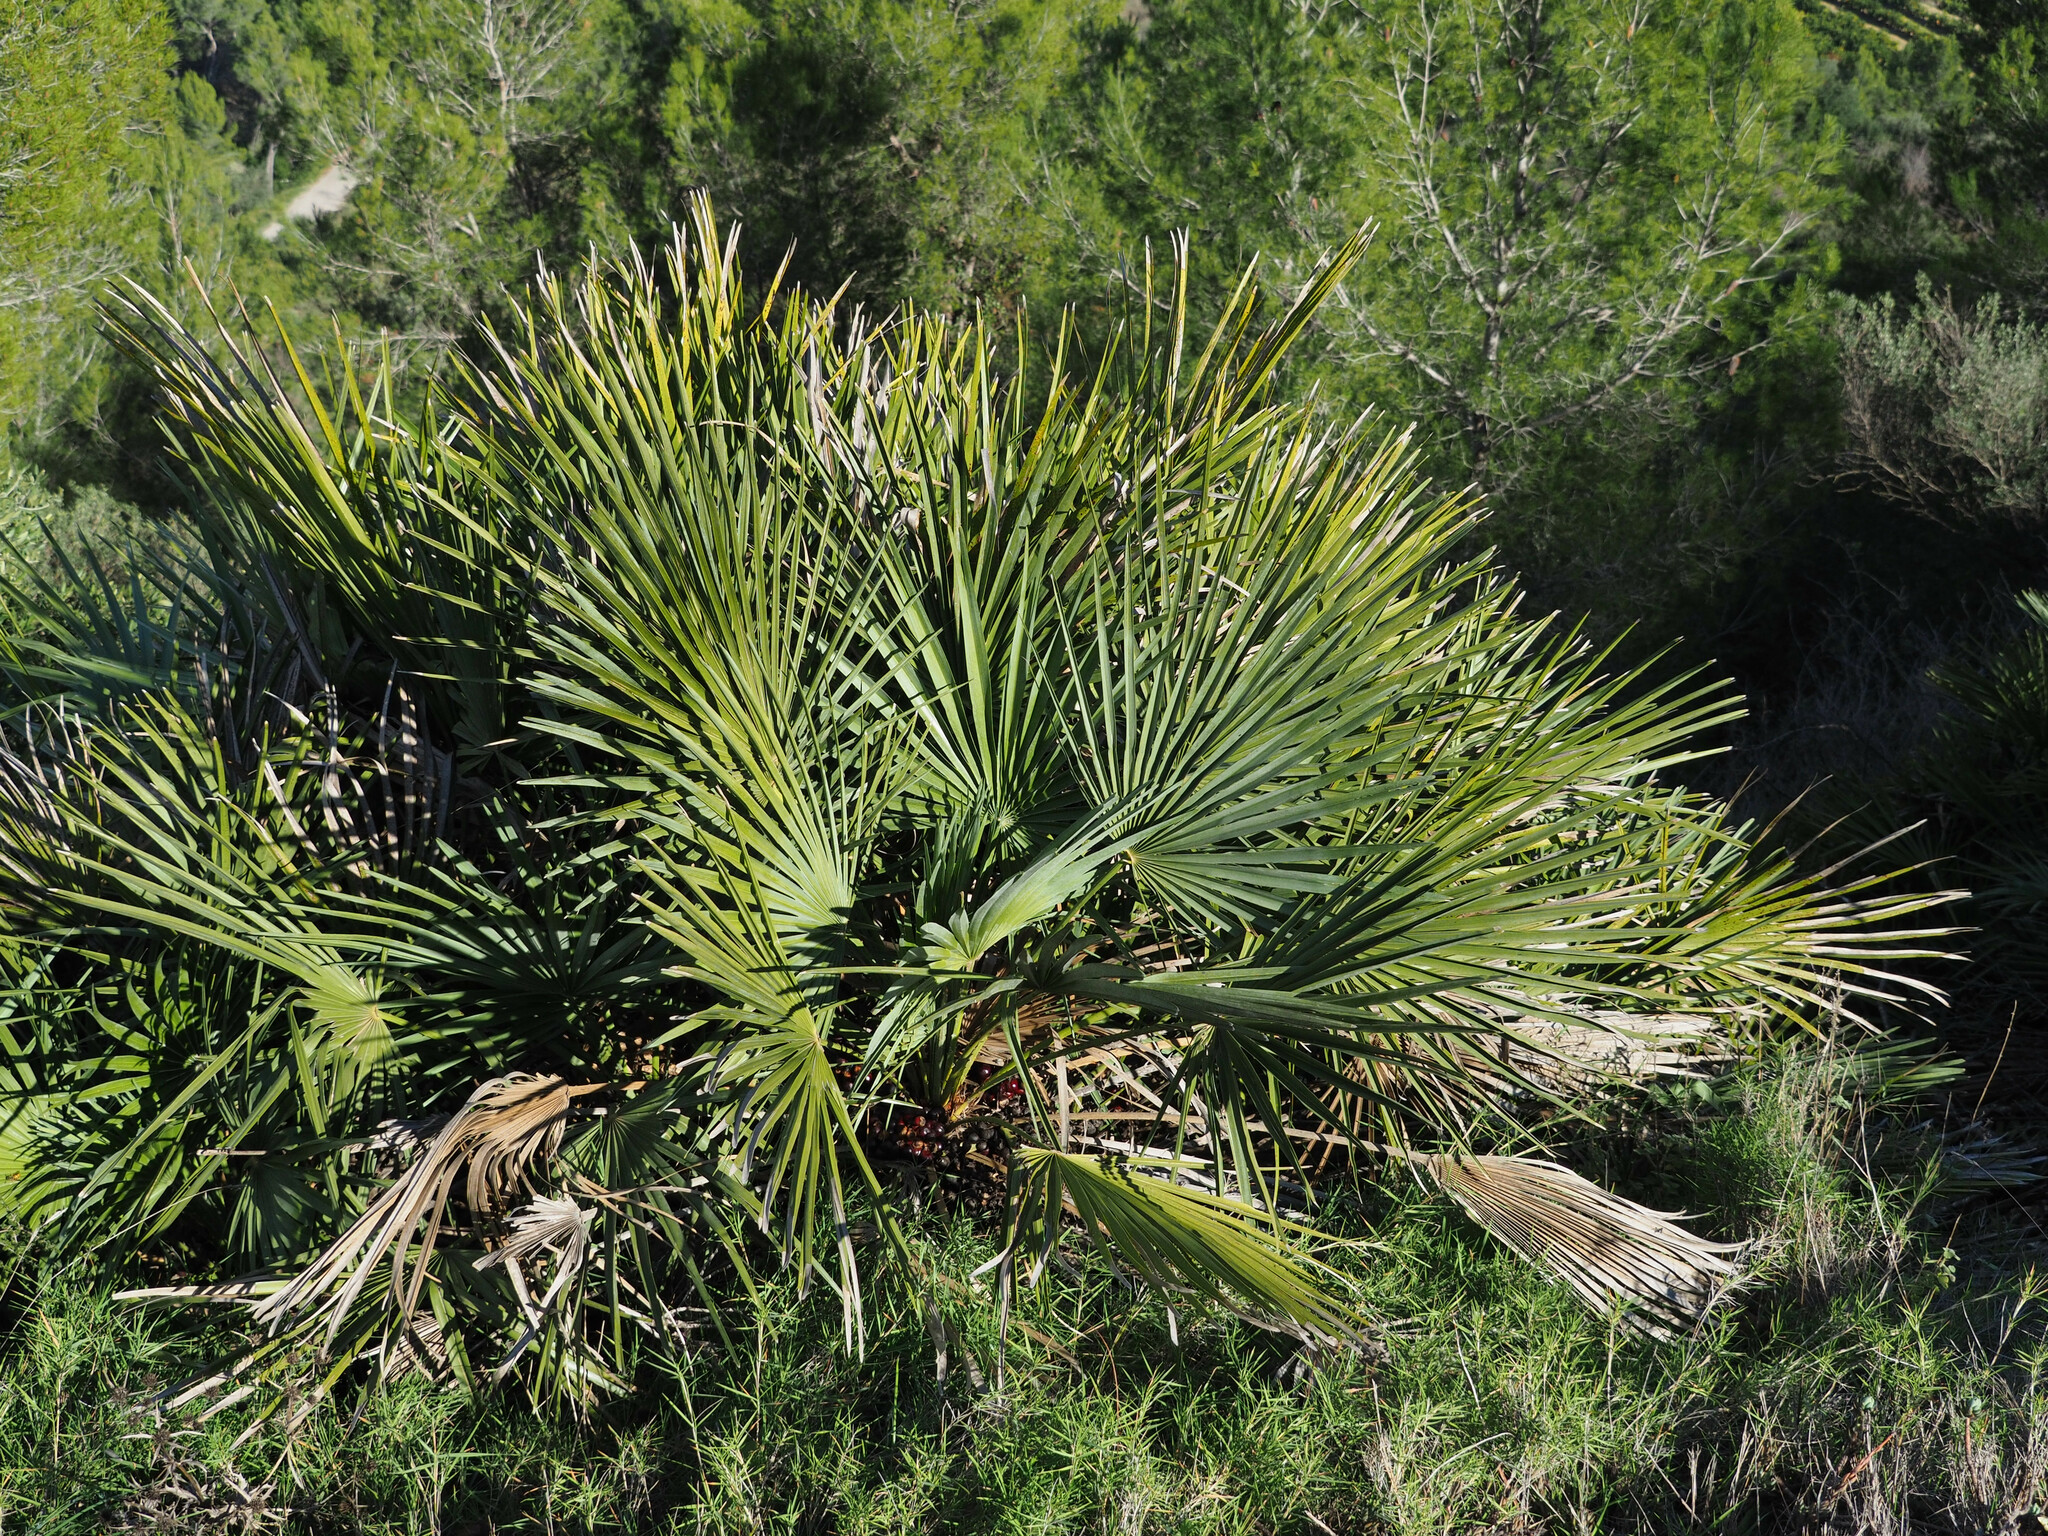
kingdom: Plantae
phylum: Tracheophyta
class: Liliopsida
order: Arecales
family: Arecaceae
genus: Chamaerops
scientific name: Chamaerops humilis
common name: Dwarf fan palm
